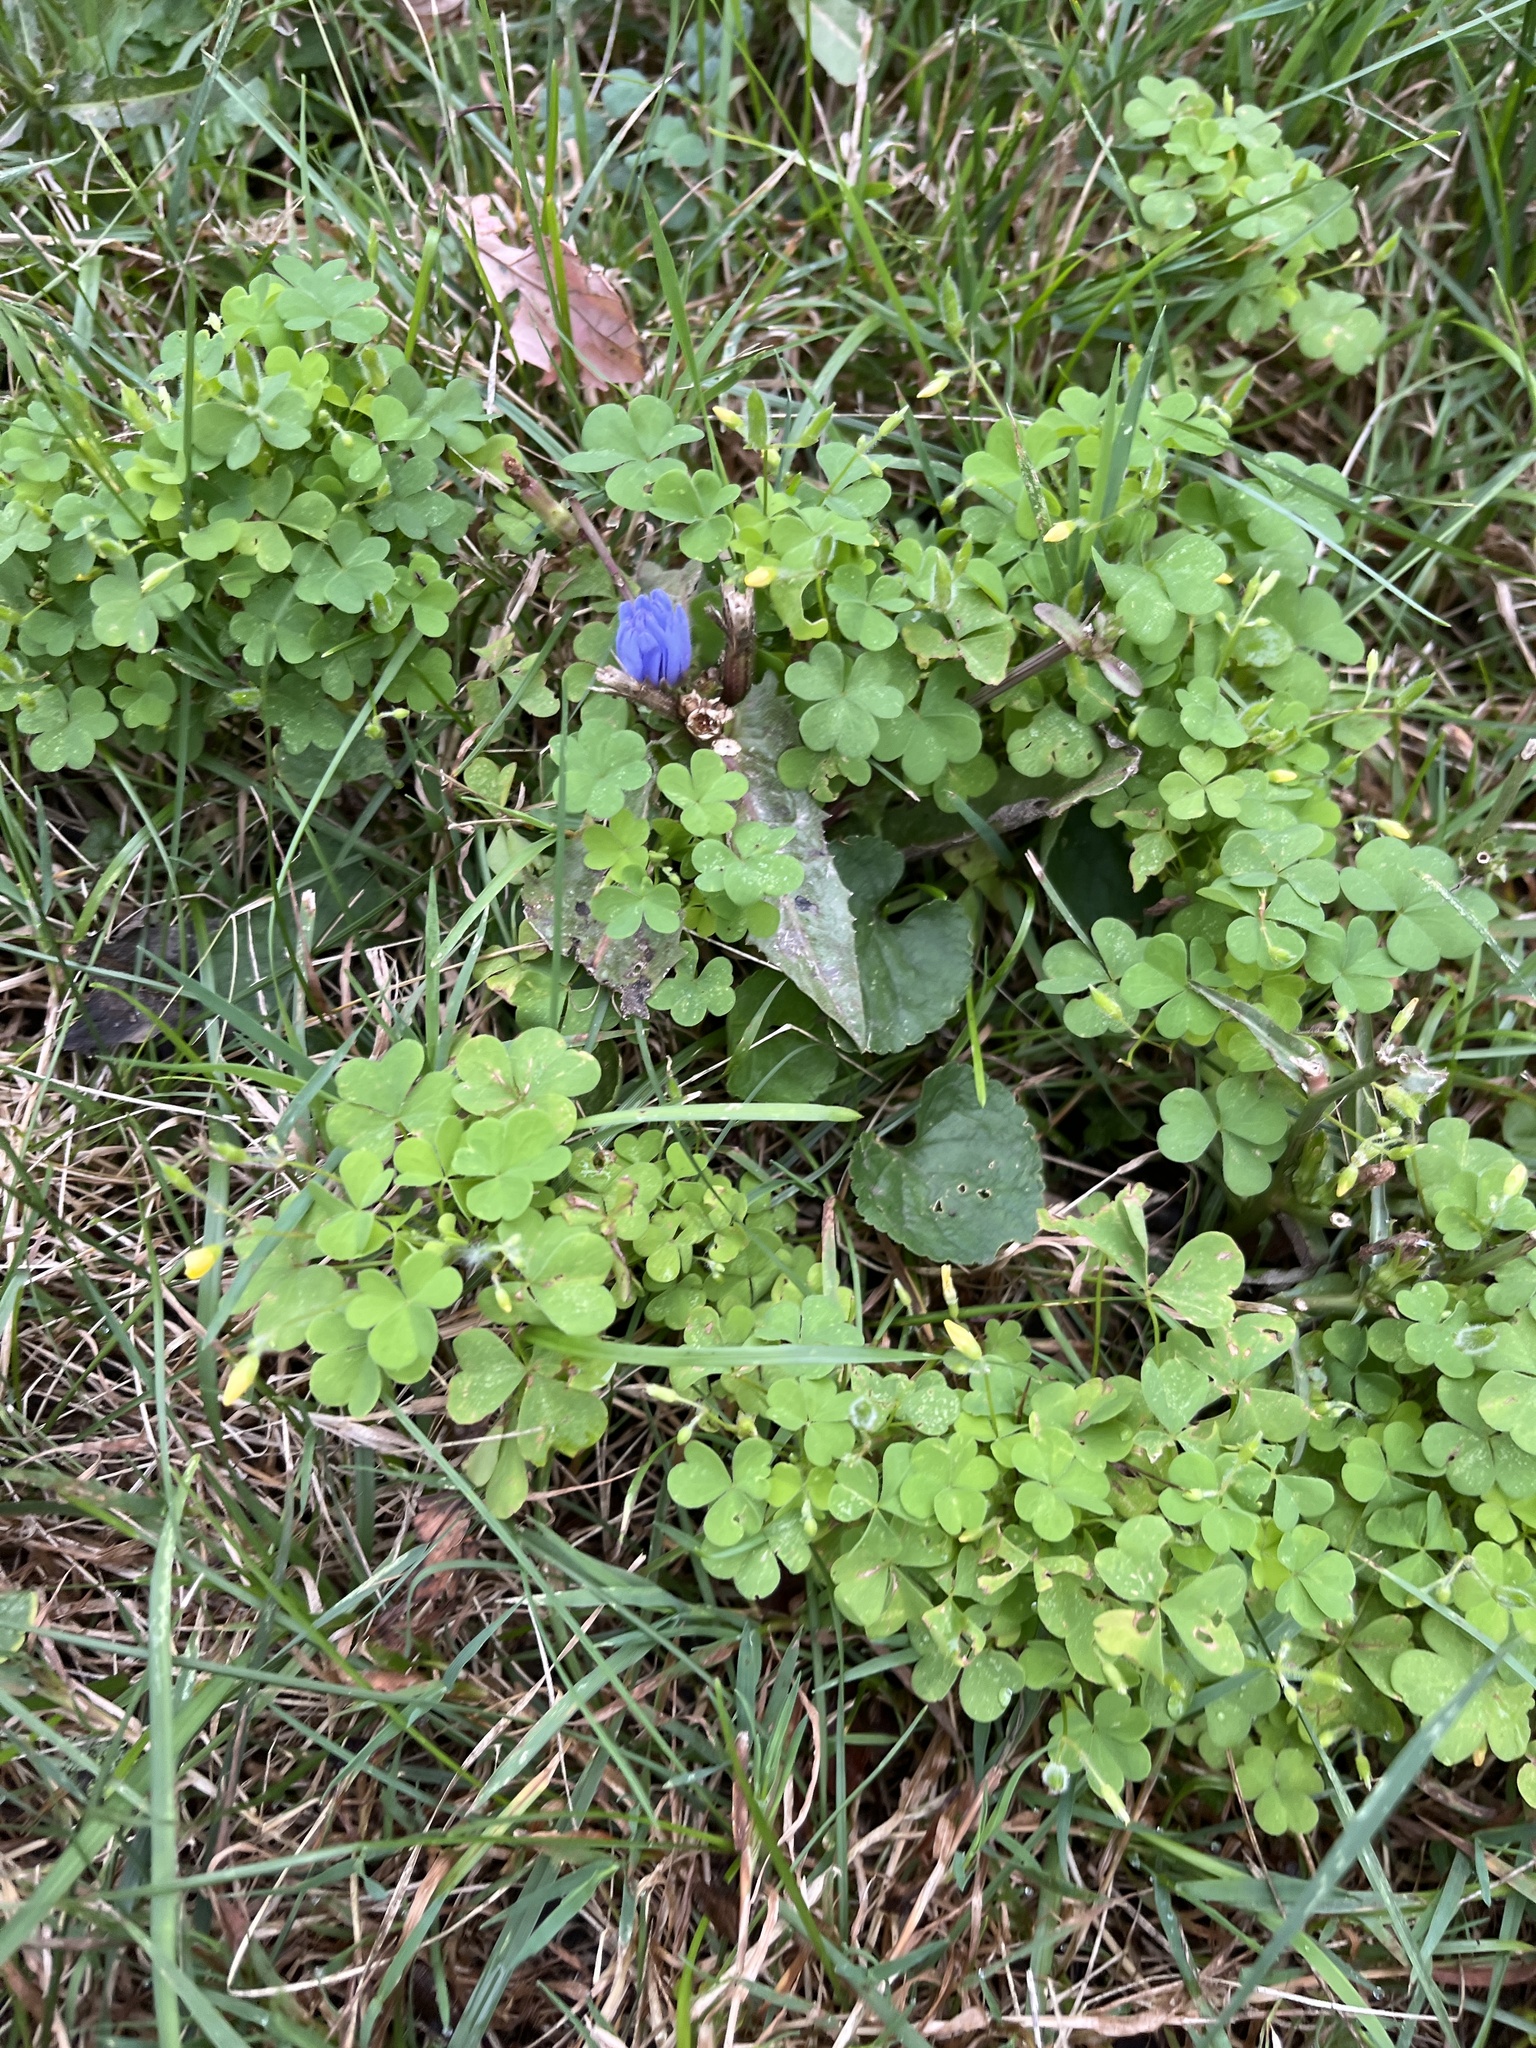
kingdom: Plantae
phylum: Tracheophyta
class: Magnoliopsida
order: Oxalidales
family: Oxalidaceae
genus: Oxalis
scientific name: Oxalis stricta
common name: Upright yellow-sorrel
